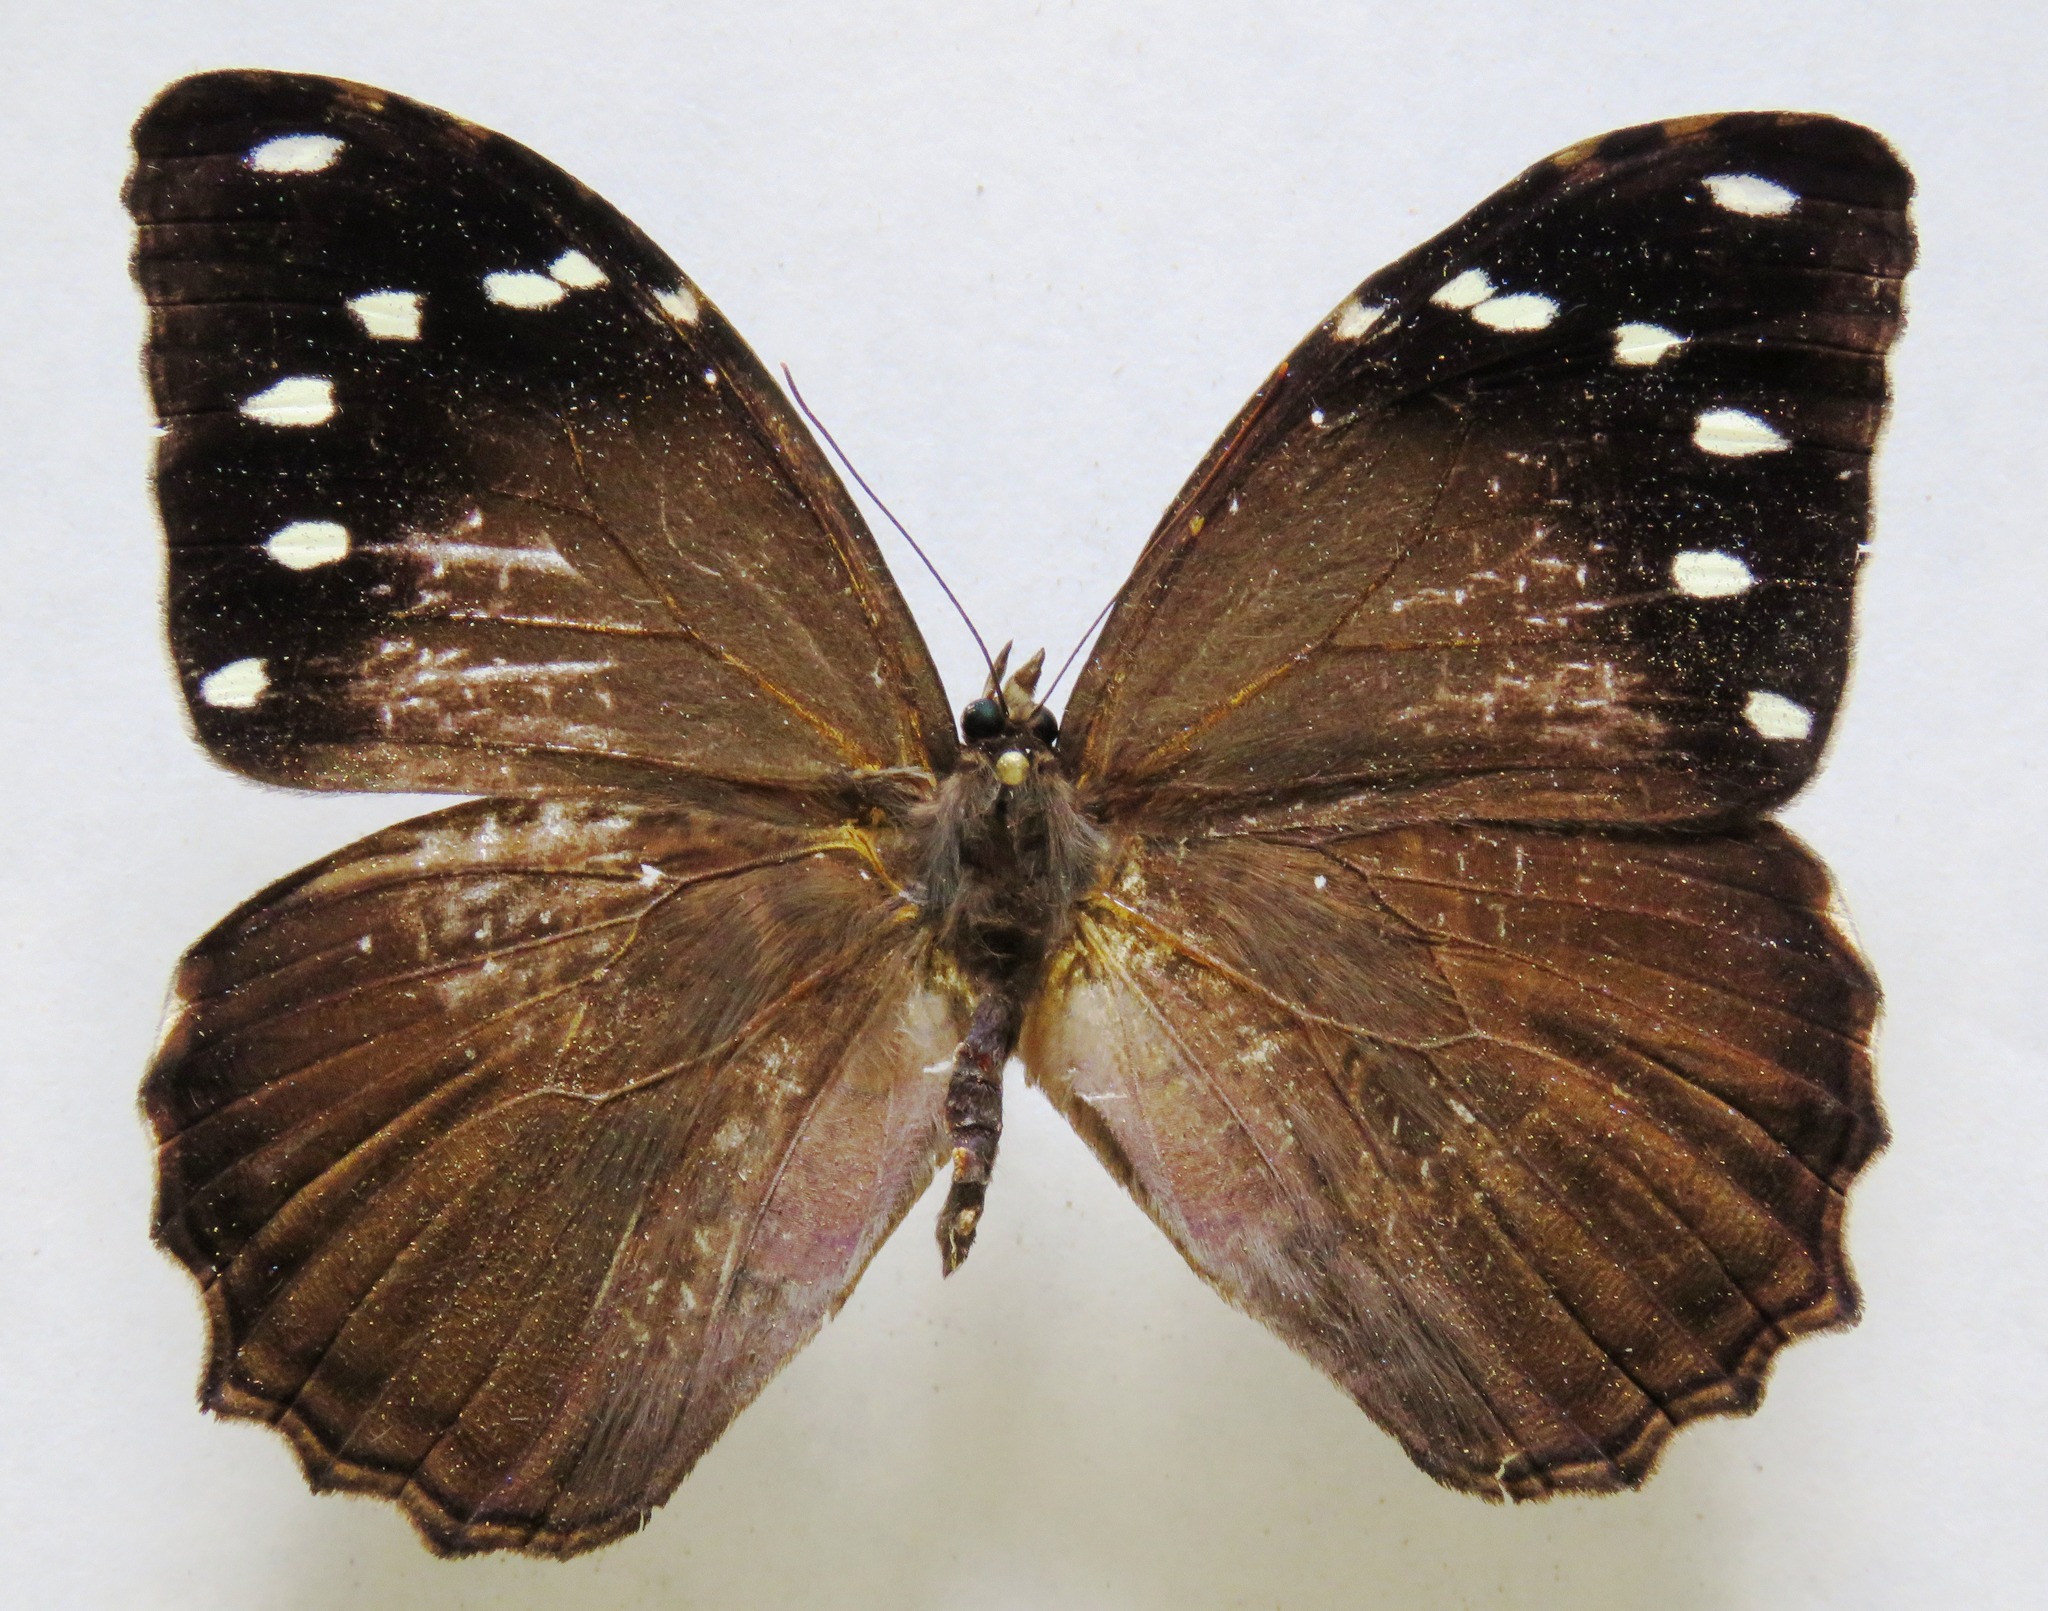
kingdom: Animalia
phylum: Arthropoda
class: Insecta
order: Lepidoptera
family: Nymphalidae
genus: Manataria
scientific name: Manataria maculata
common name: White-spotted satyr
